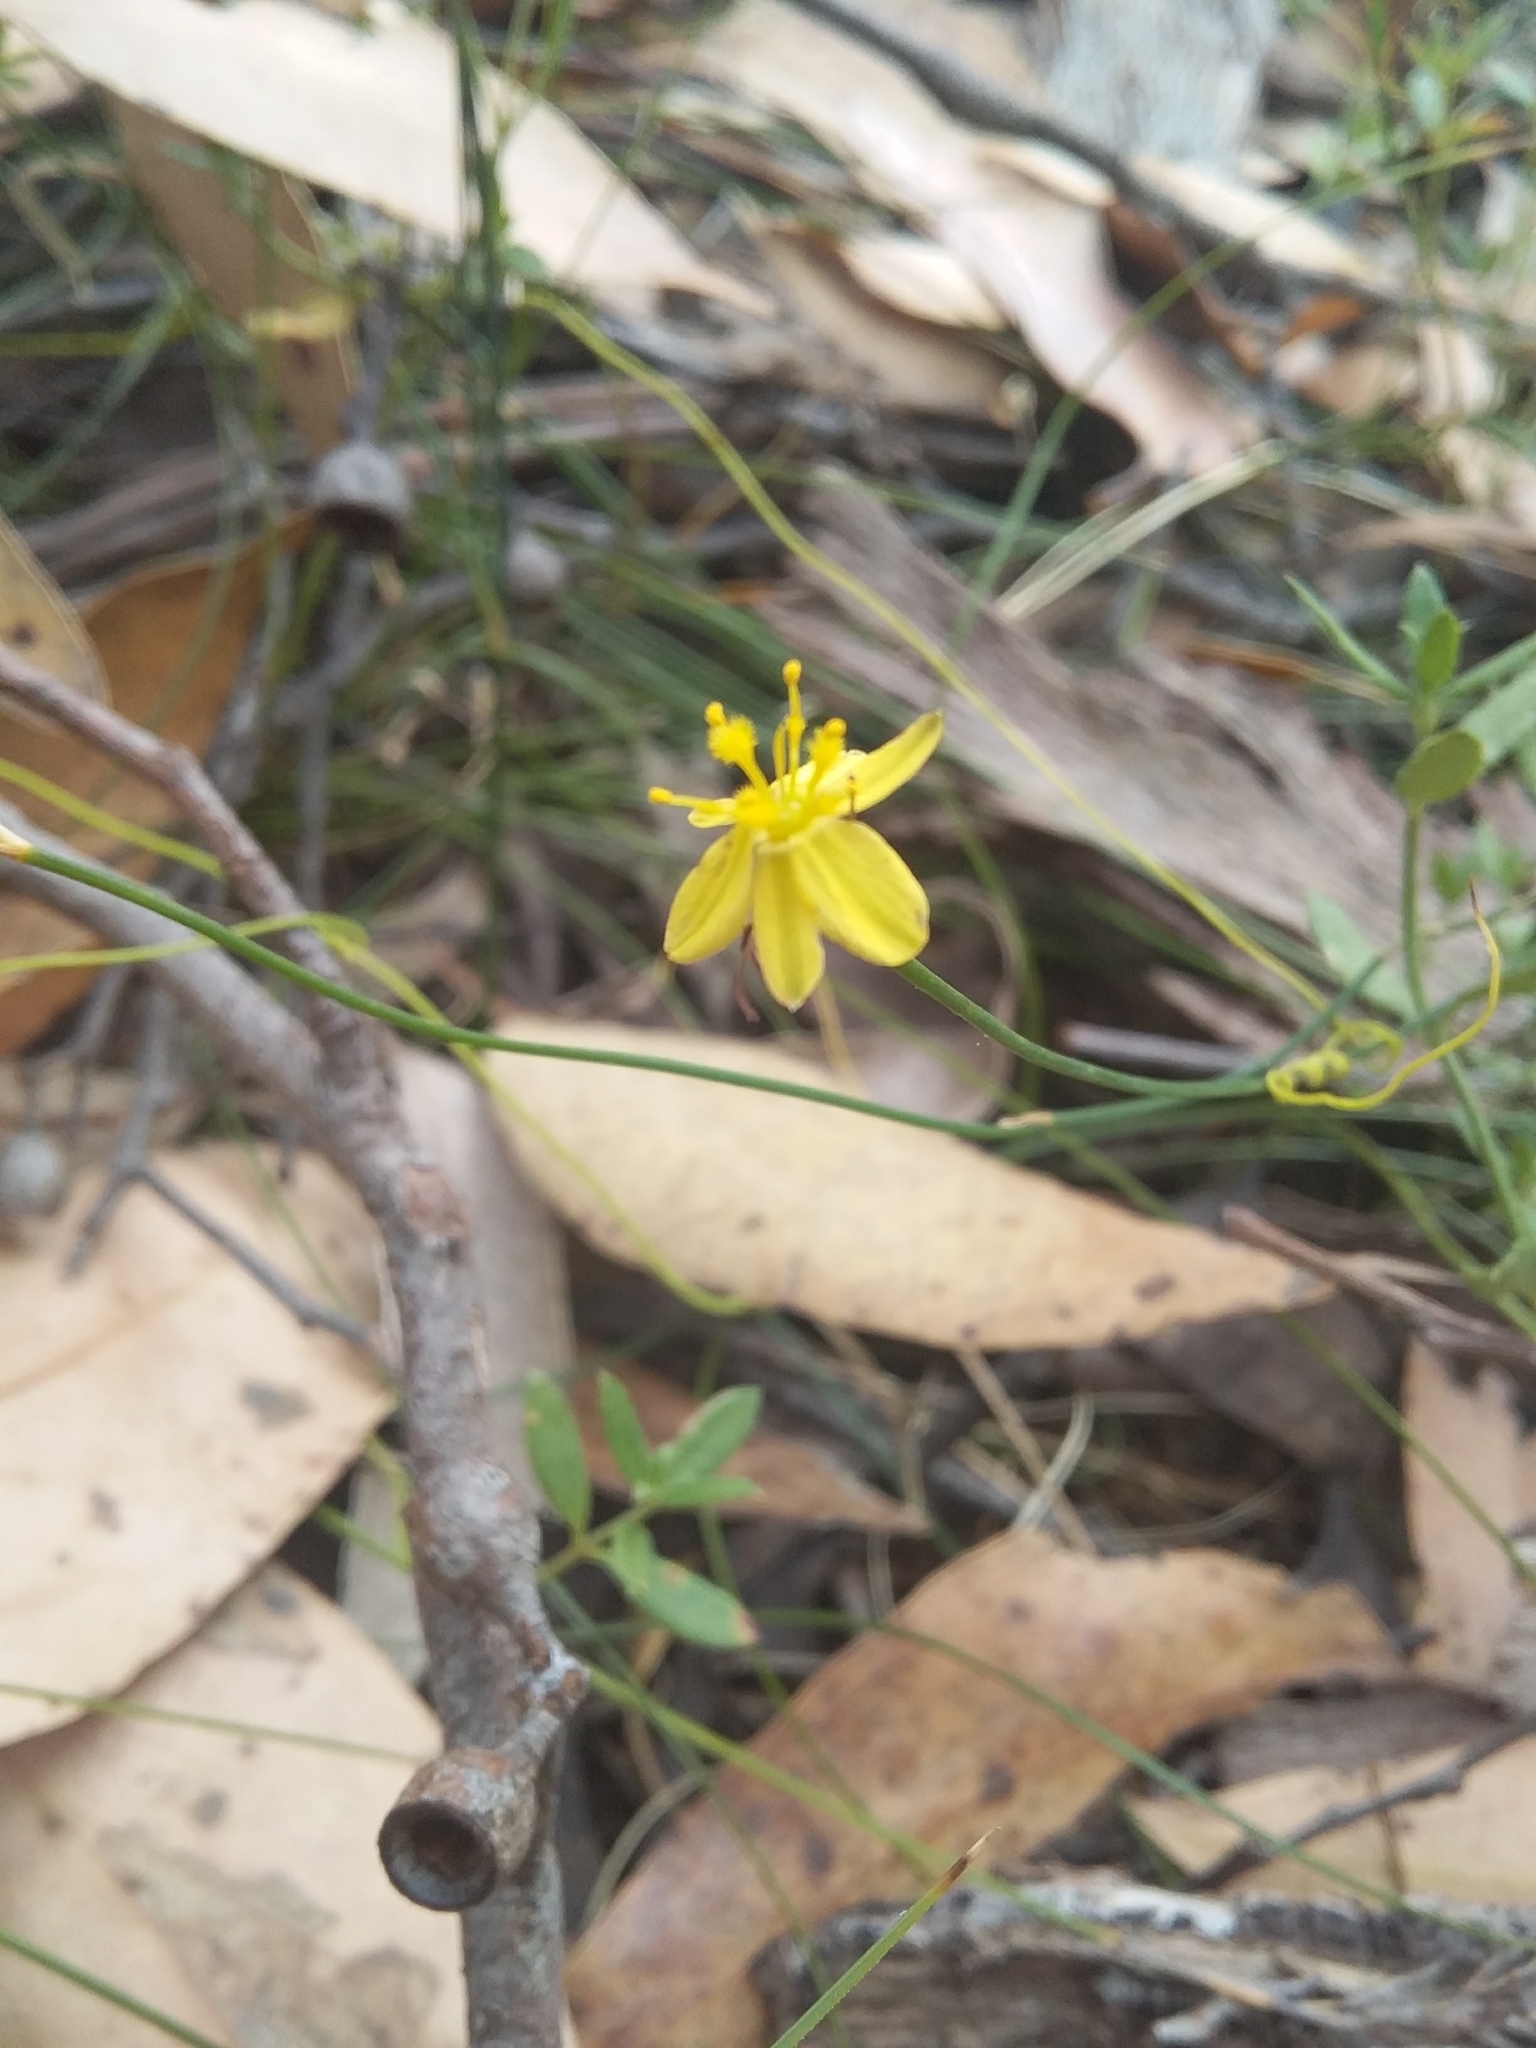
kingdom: Plantae
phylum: Tracheophyta
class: Liliopsida
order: Asparagales
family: Asphodelaceae
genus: Tricoryne
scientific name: Tricoryne elatior
